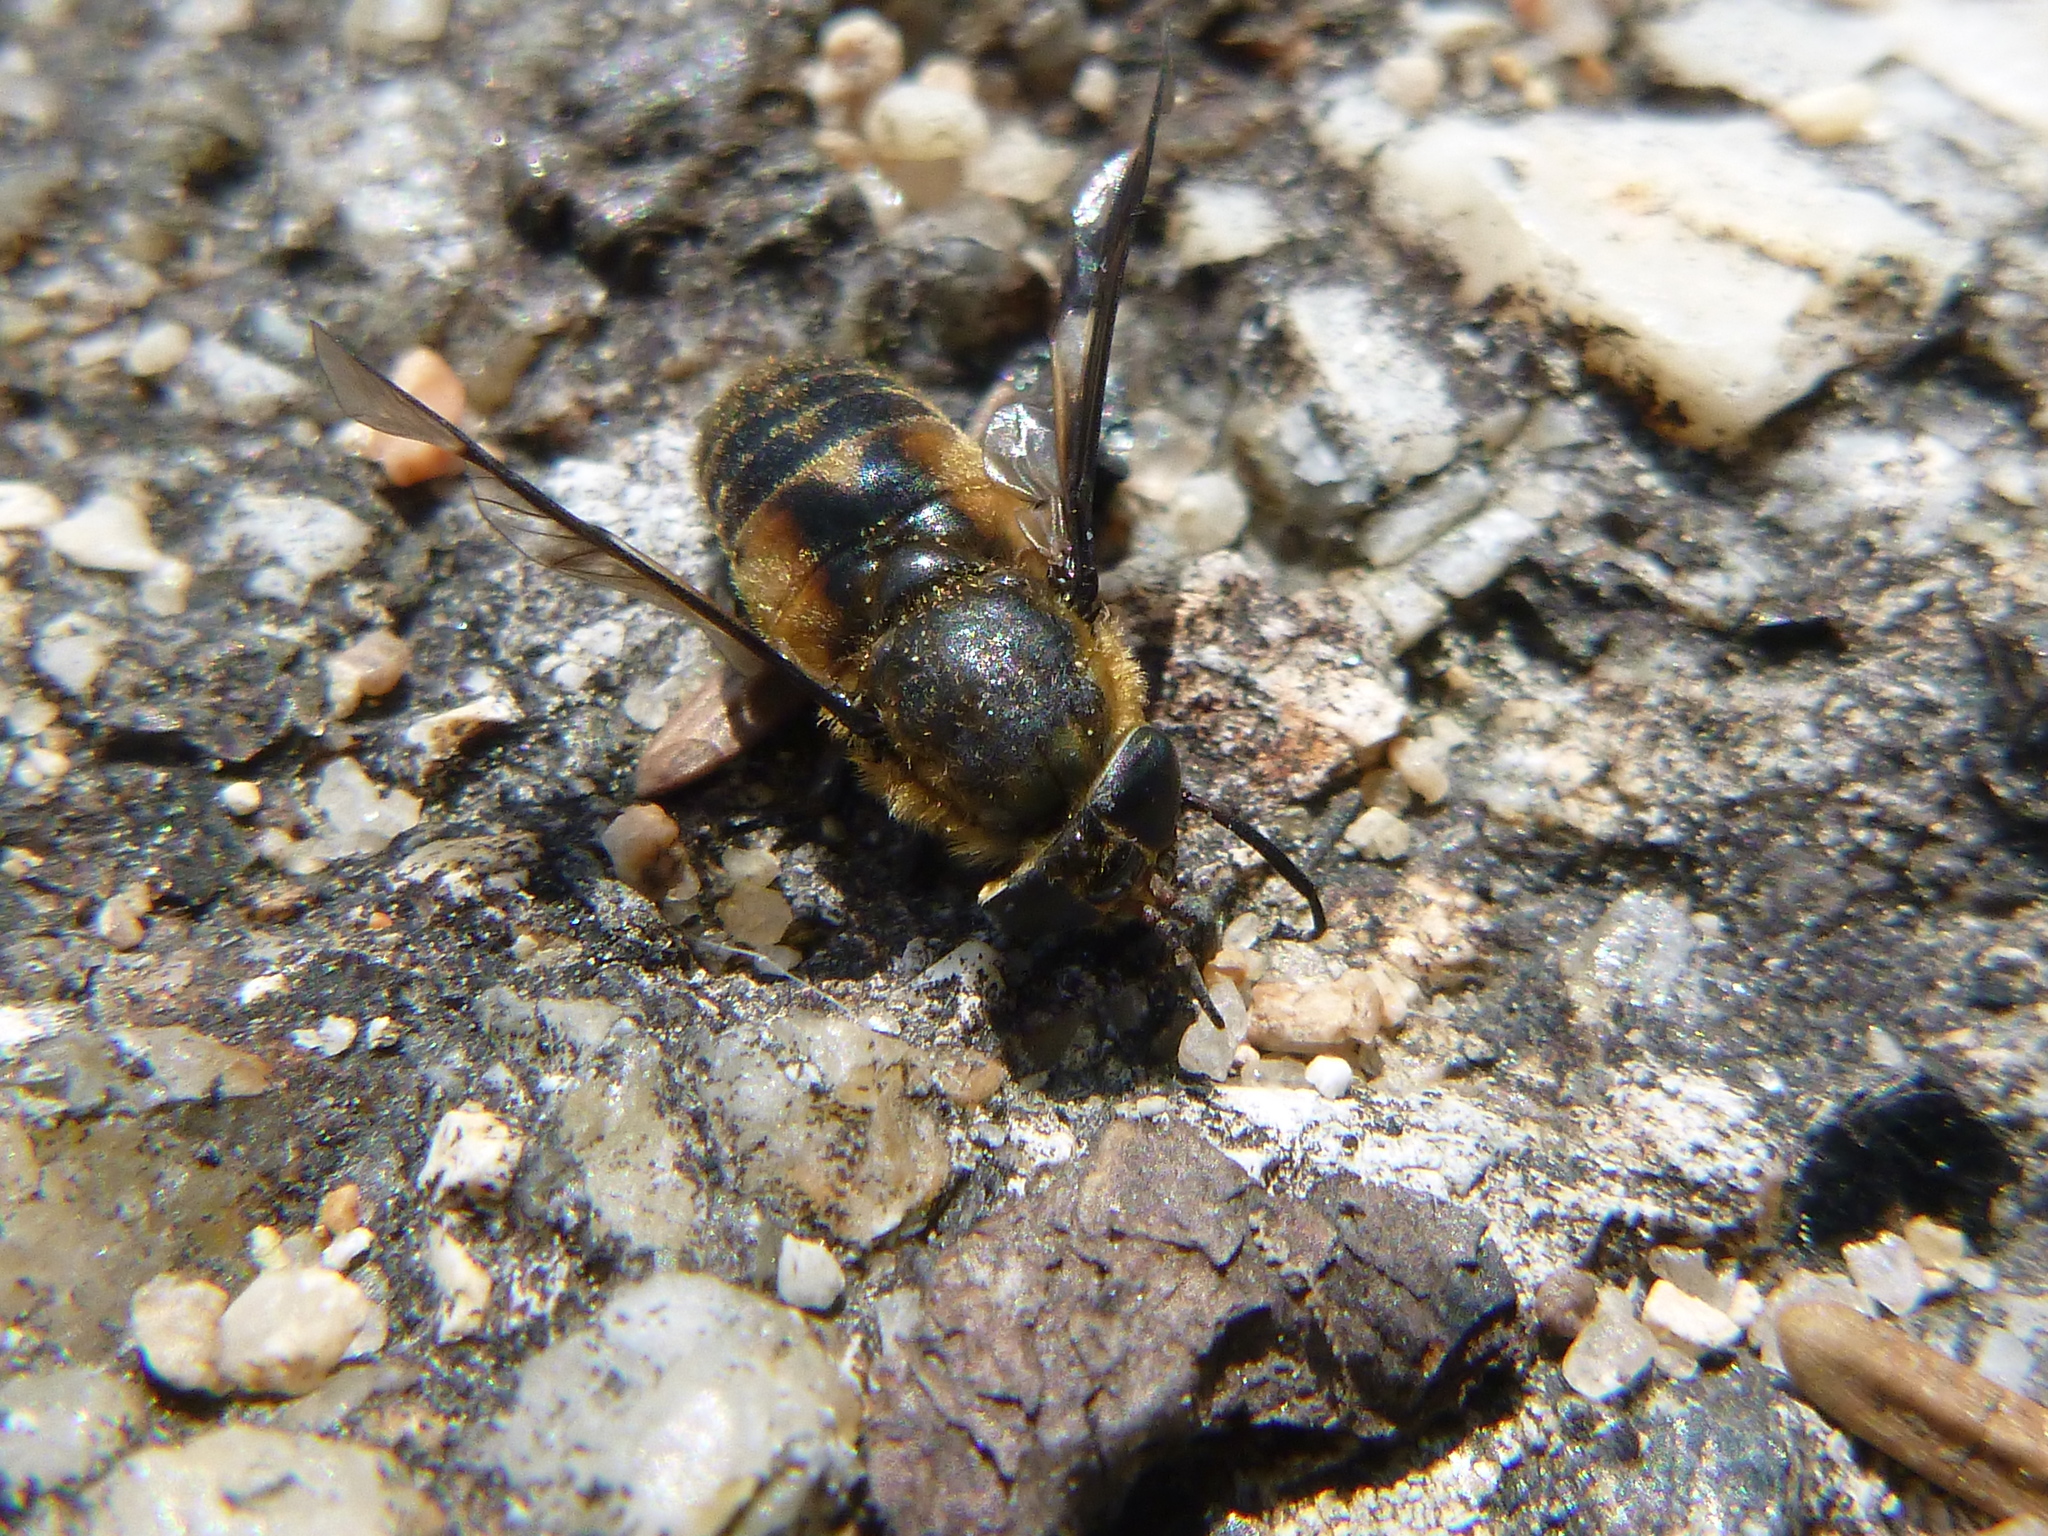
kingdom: Animalia
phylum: Arthropoda
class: Insecta
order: Diptera
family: Tabanidae
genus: Chrysops
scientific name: Chrysops excitans
